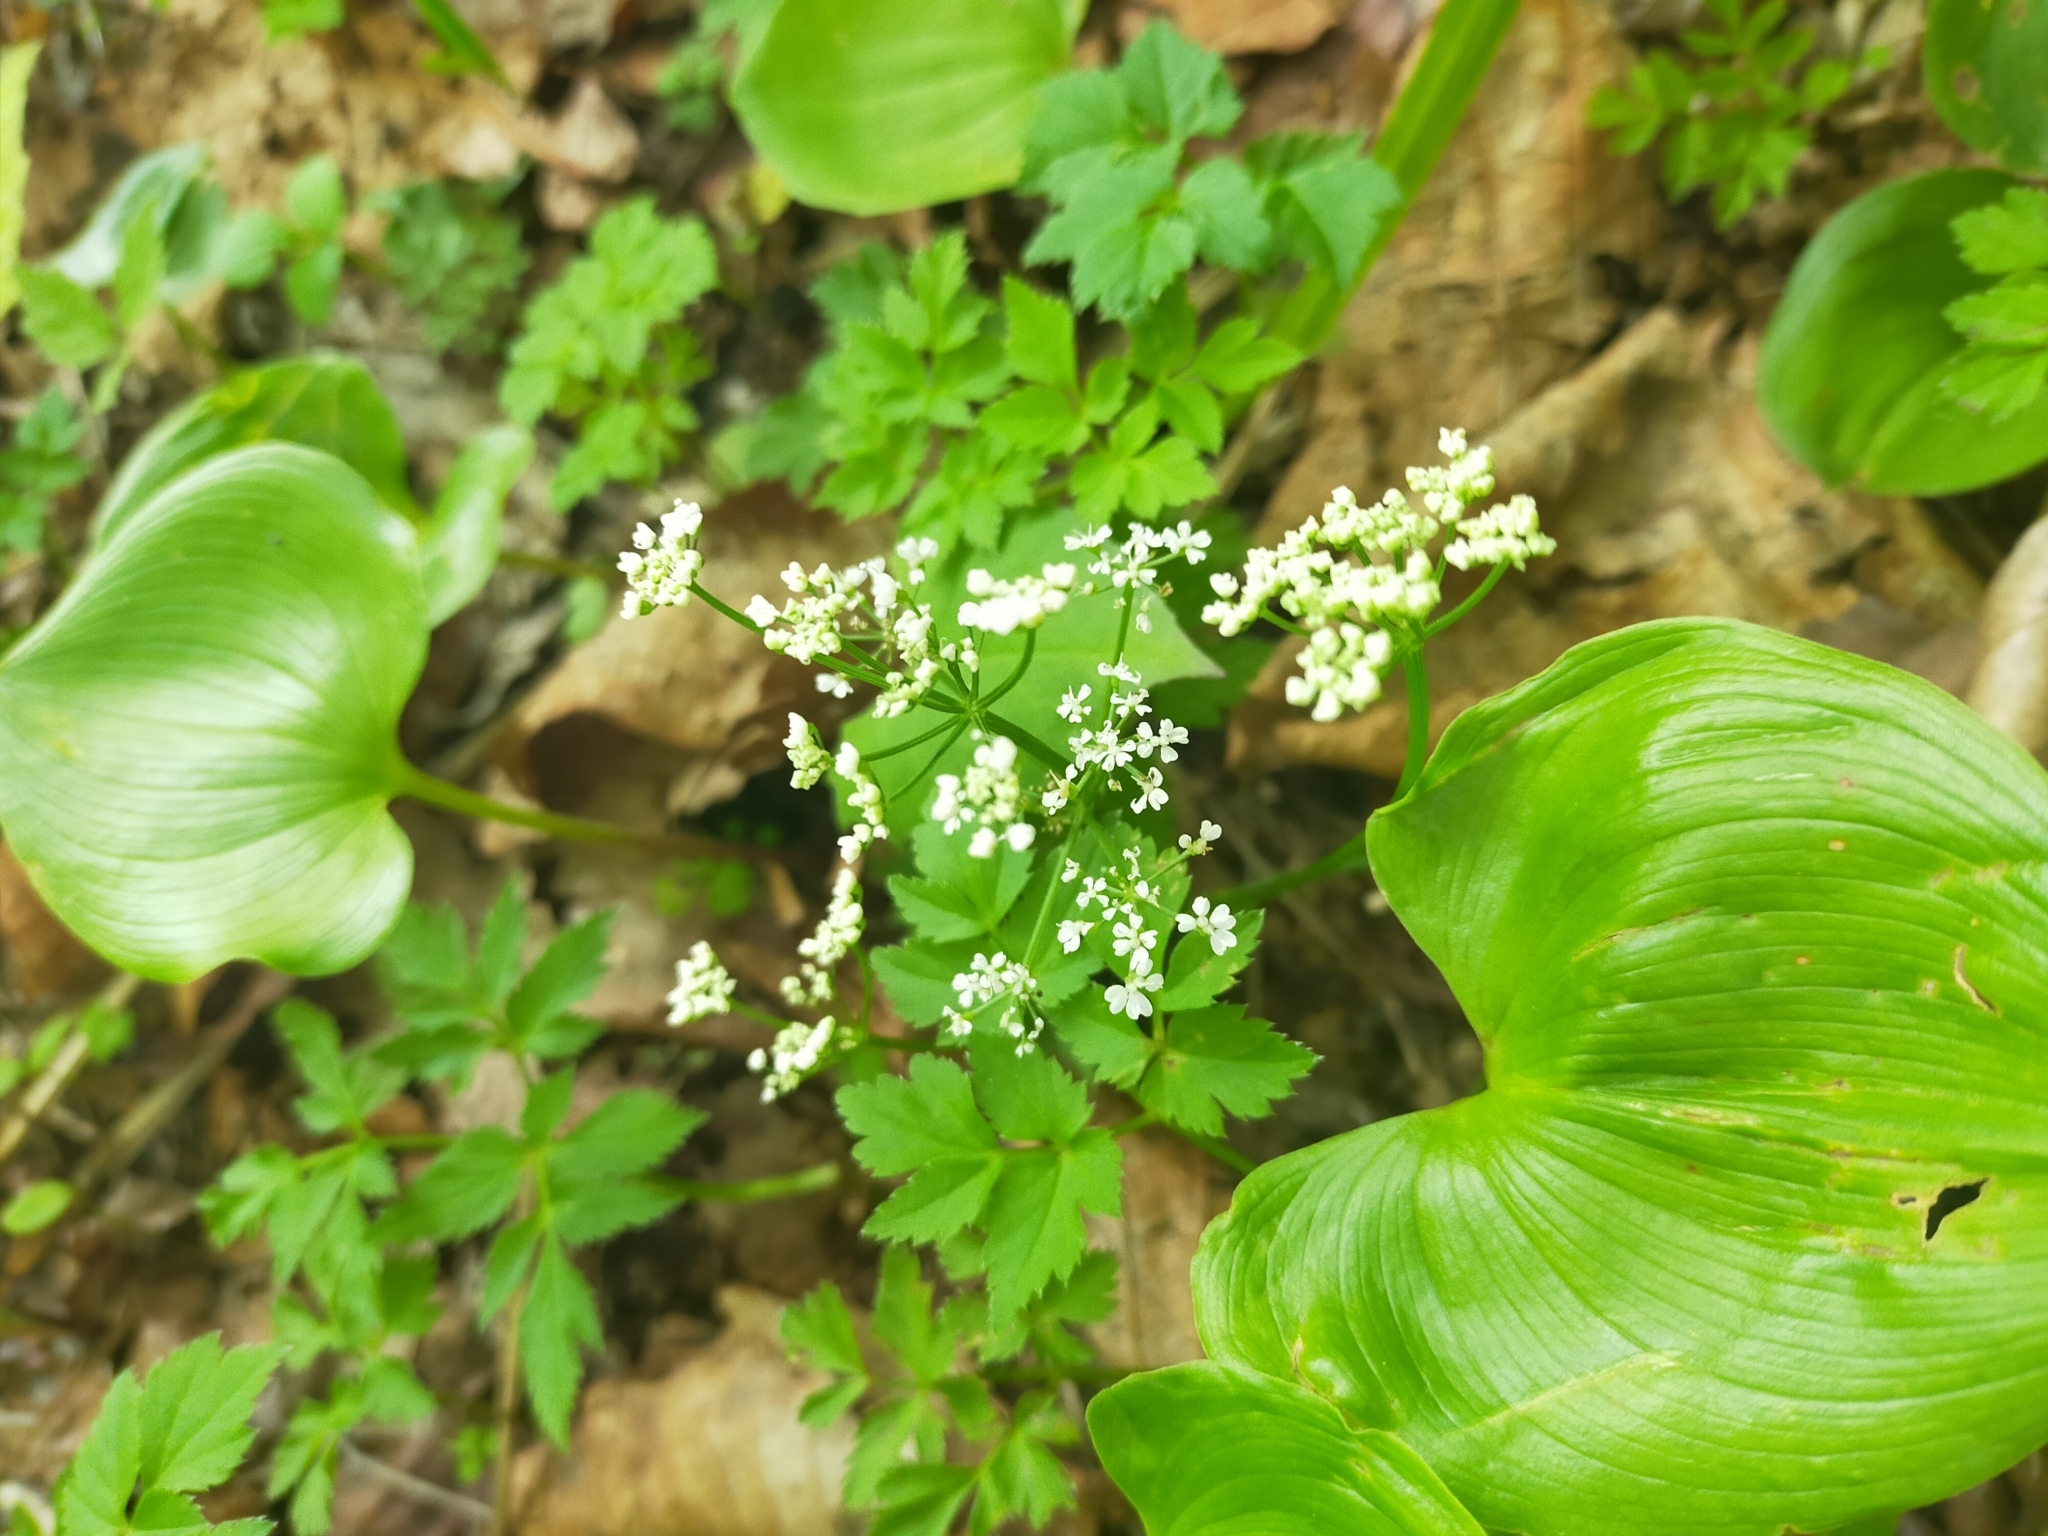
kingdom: Plantae
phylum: Tracheophyta
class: Magnoliopsida
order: Apiales
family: Apiaceae
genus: Aegopodium
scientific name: Aegopodium alpestre
